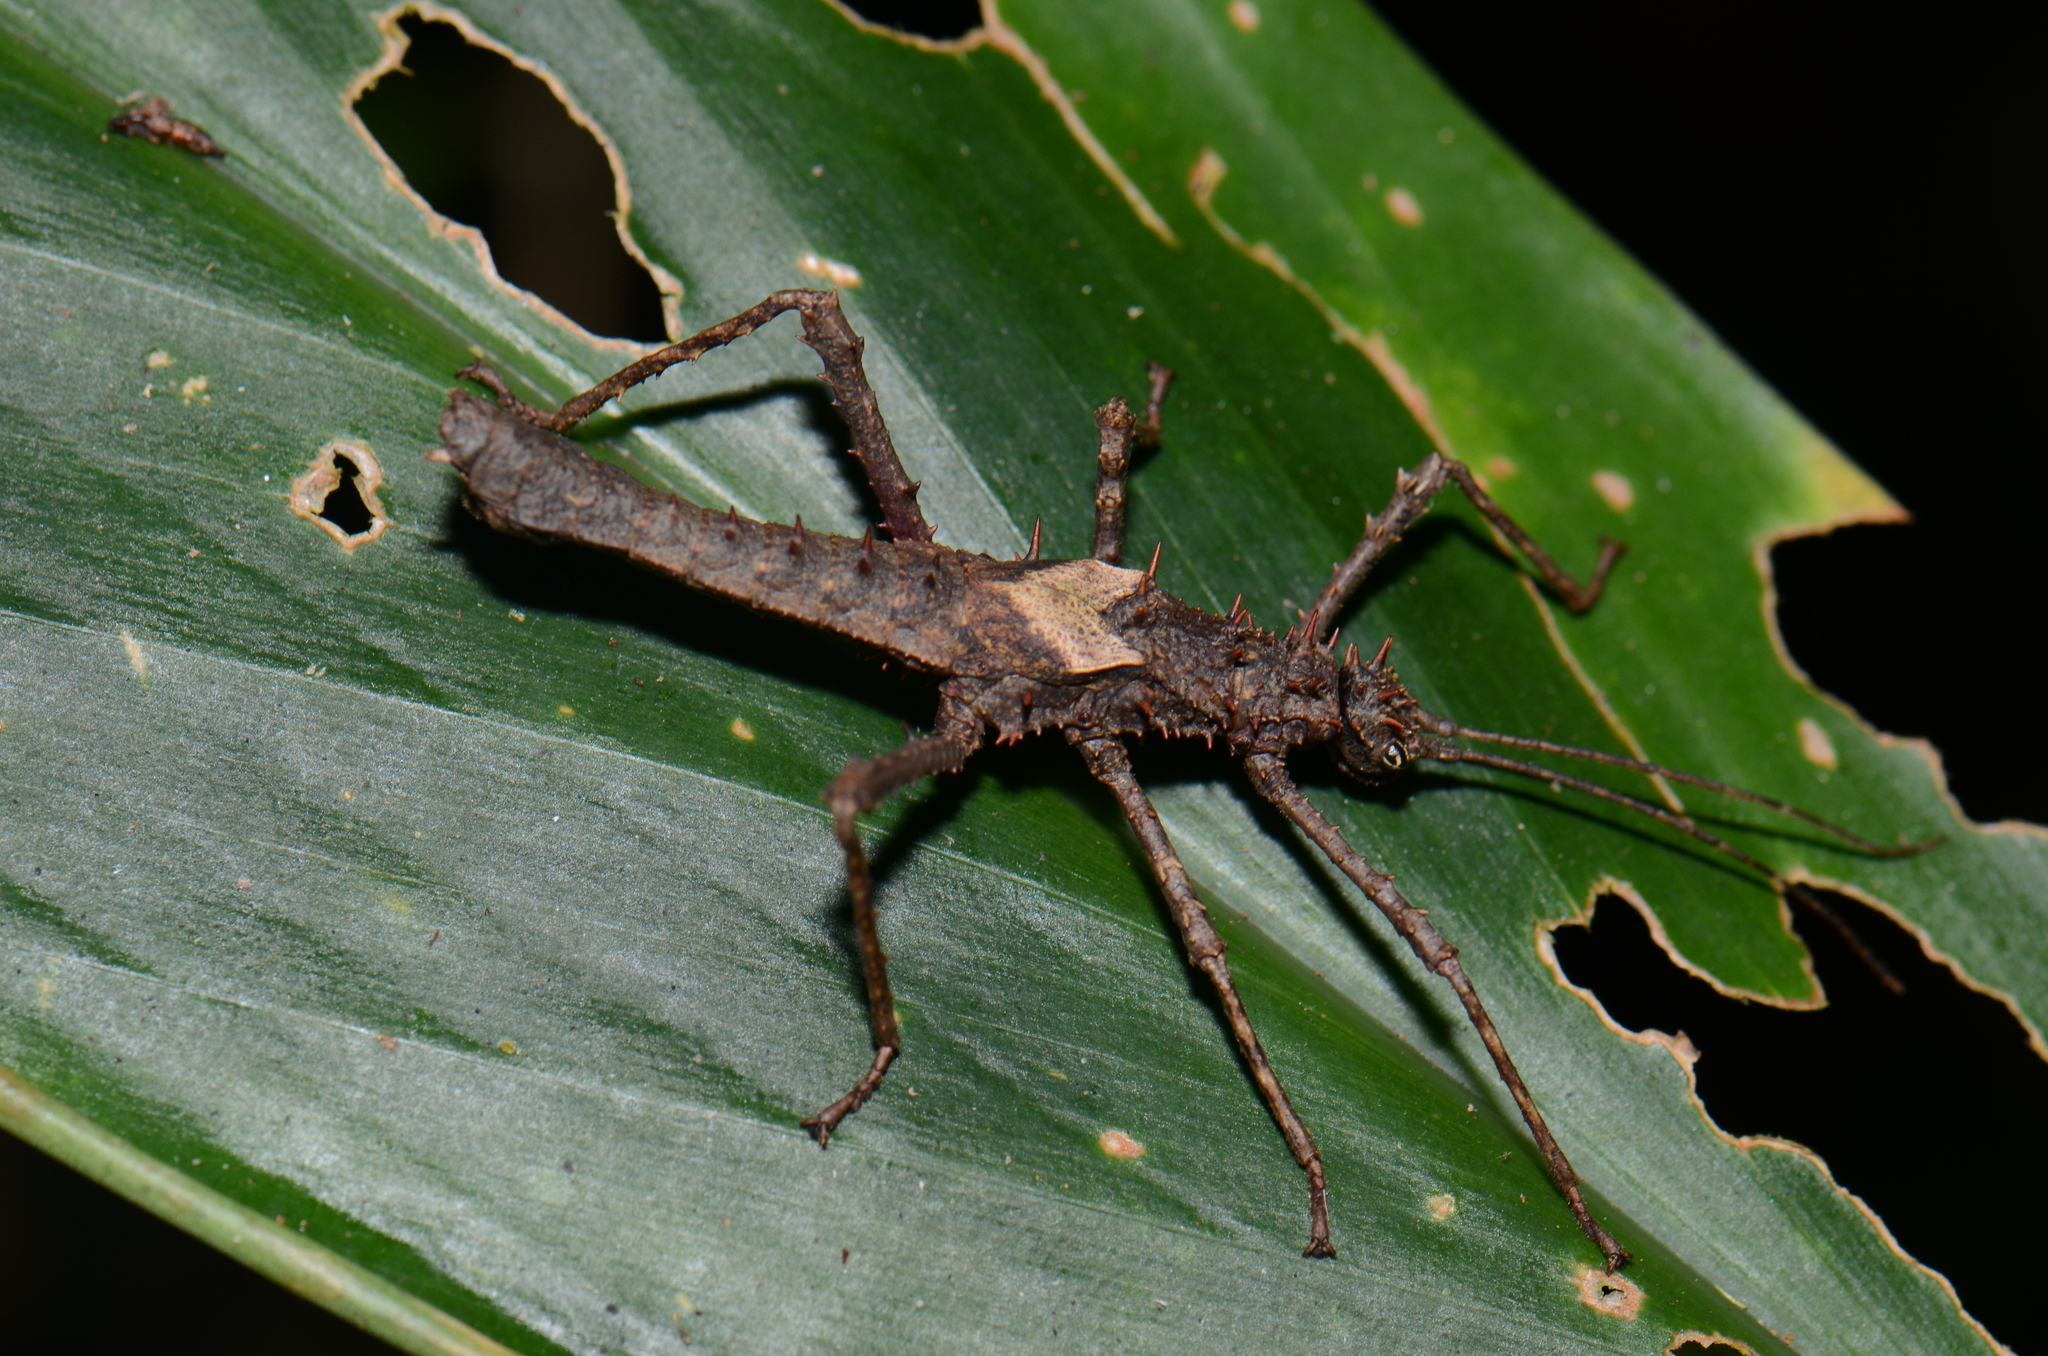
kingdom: Animalia
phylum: Arthropoda
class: Insecta
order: Phasmida
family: Heteropterygidae
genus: Haaniella
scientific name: Haaniella parva
